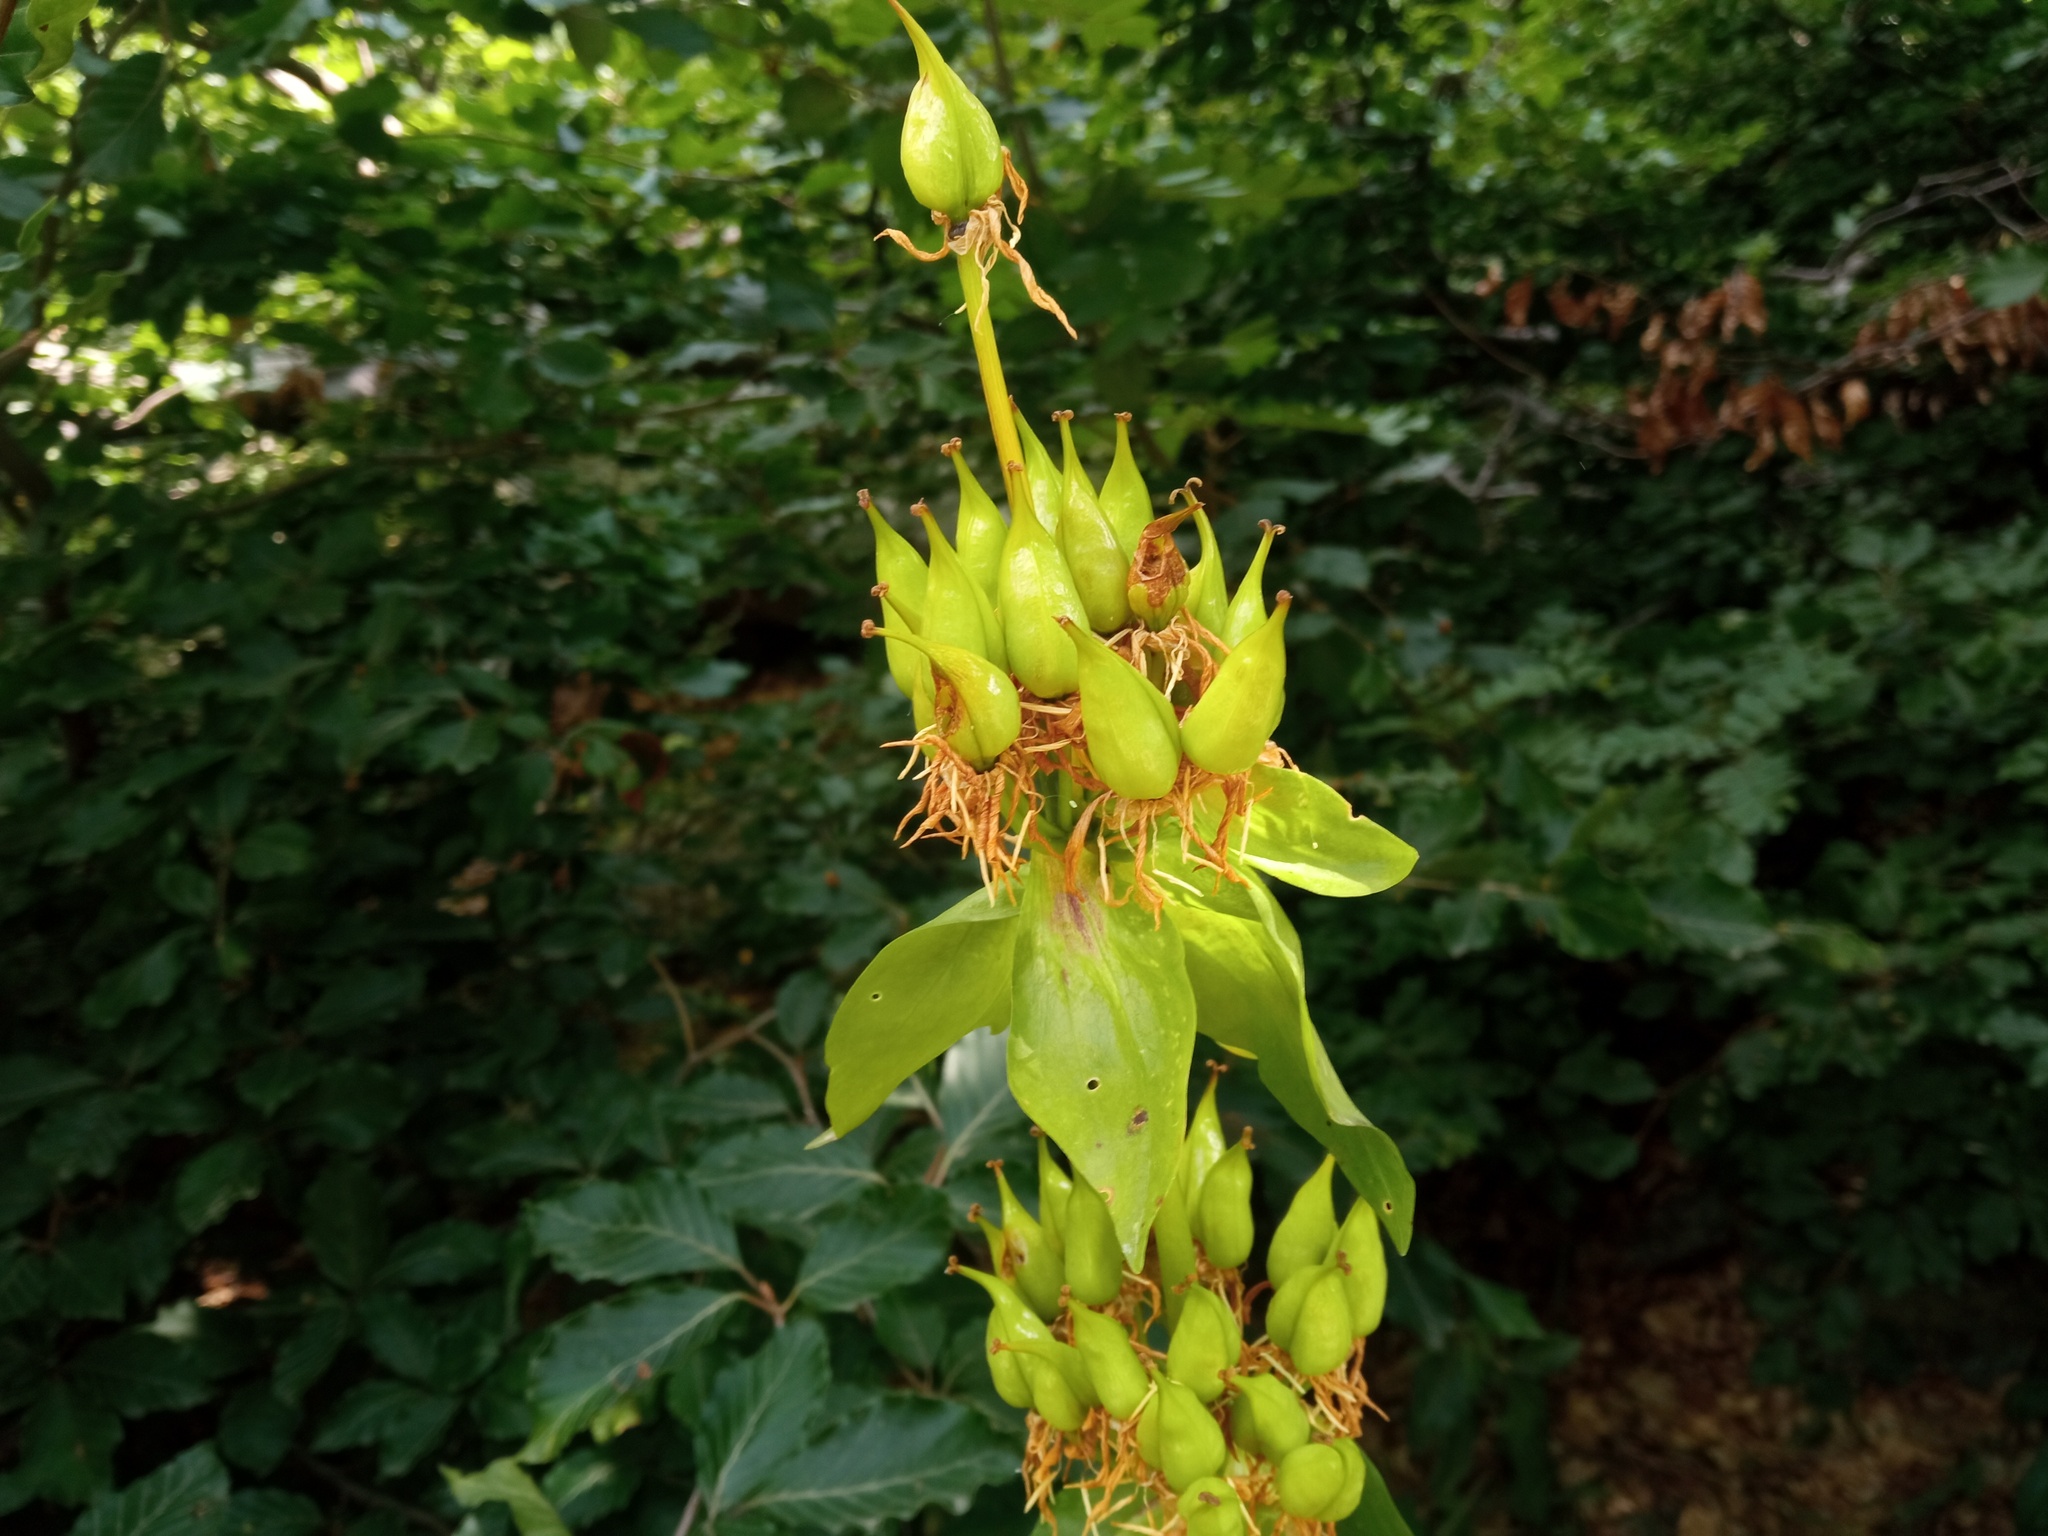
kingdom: Plantae
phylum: Tracheophyta
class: Magnoliopsida
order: Gentianales
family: Gentianaceae
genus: Gentiana
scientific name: Gentiana lutea
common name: Great yellow gentian
